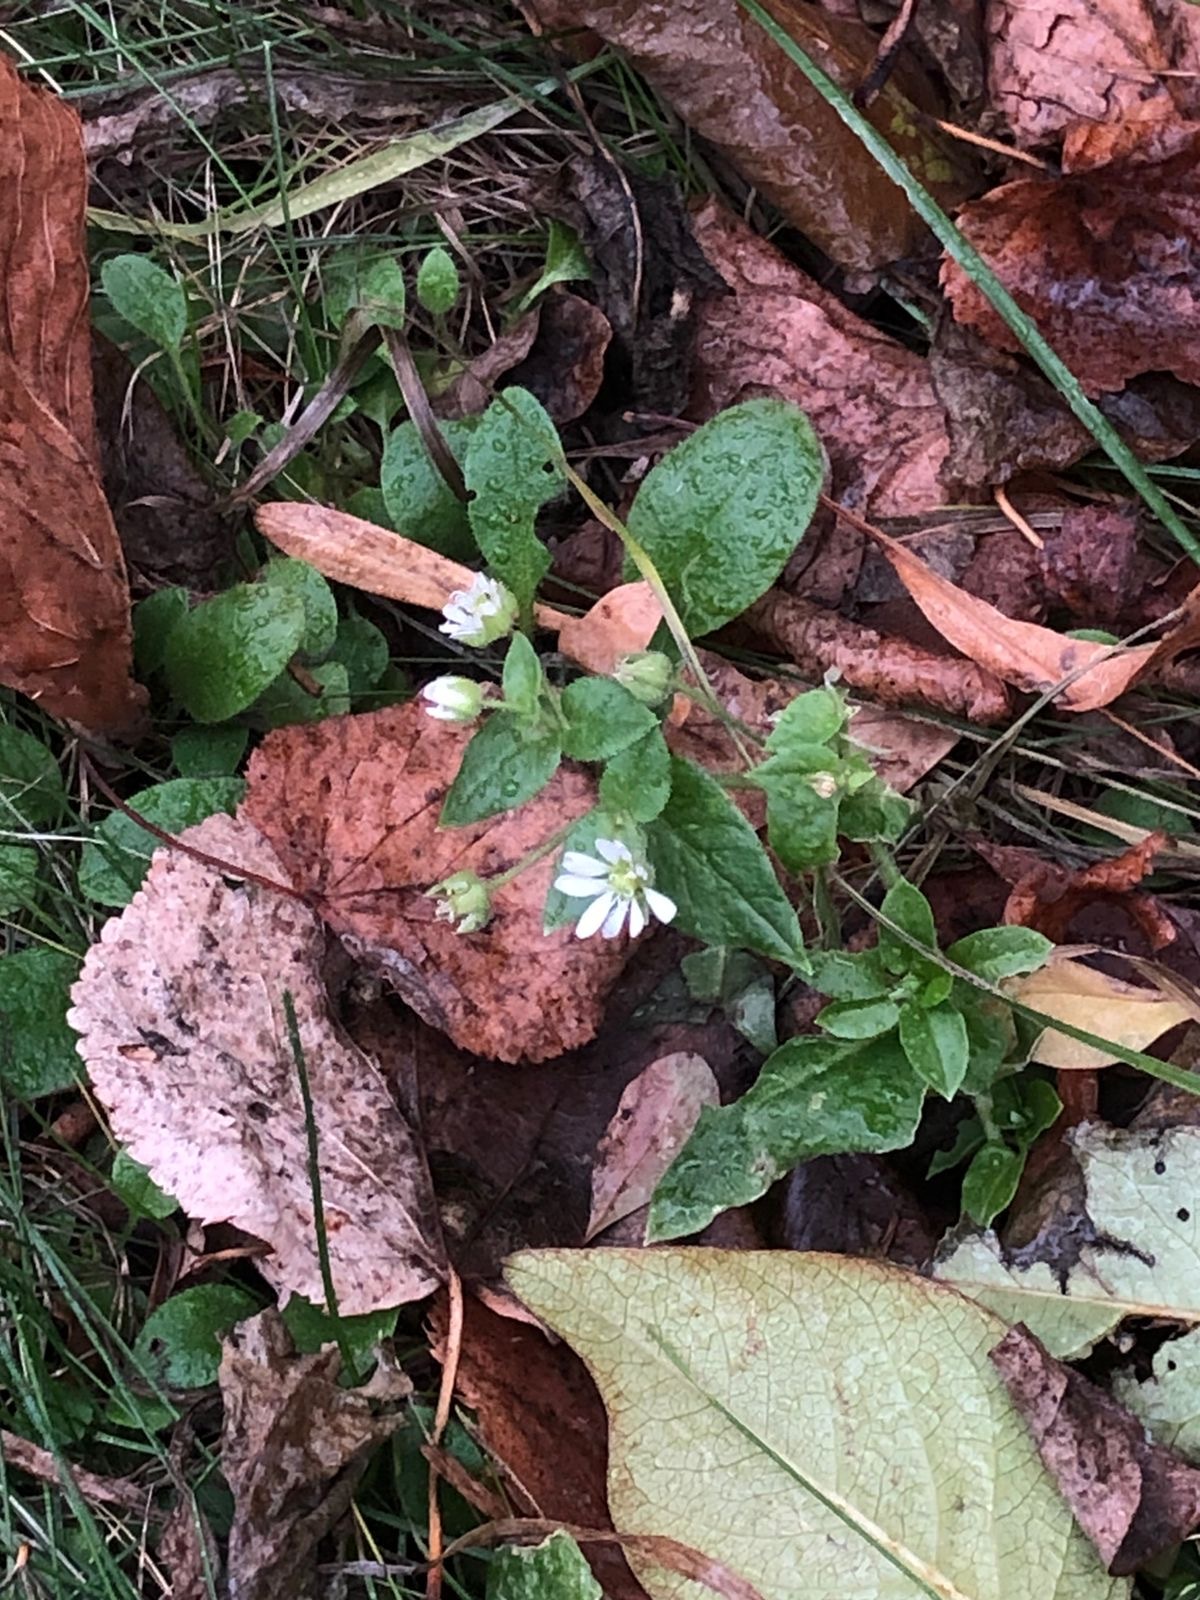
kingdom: Plantae
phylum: Tracheophyta
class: Magnoliopsida
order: Caryophyllales
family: Caryophyllaceae
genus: Stellaria
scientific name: Stellaria aquatica
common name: Water chickweed
